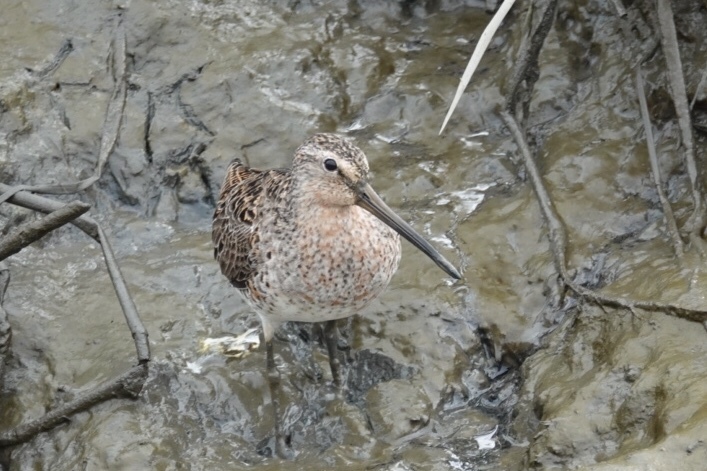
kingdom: Animalia
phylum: Chordata
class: Aves
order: Charadriiformes
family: Scolopacidae
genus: Limnodromus
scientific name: Limnodromus griseus
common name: Short-billed dowitcher
